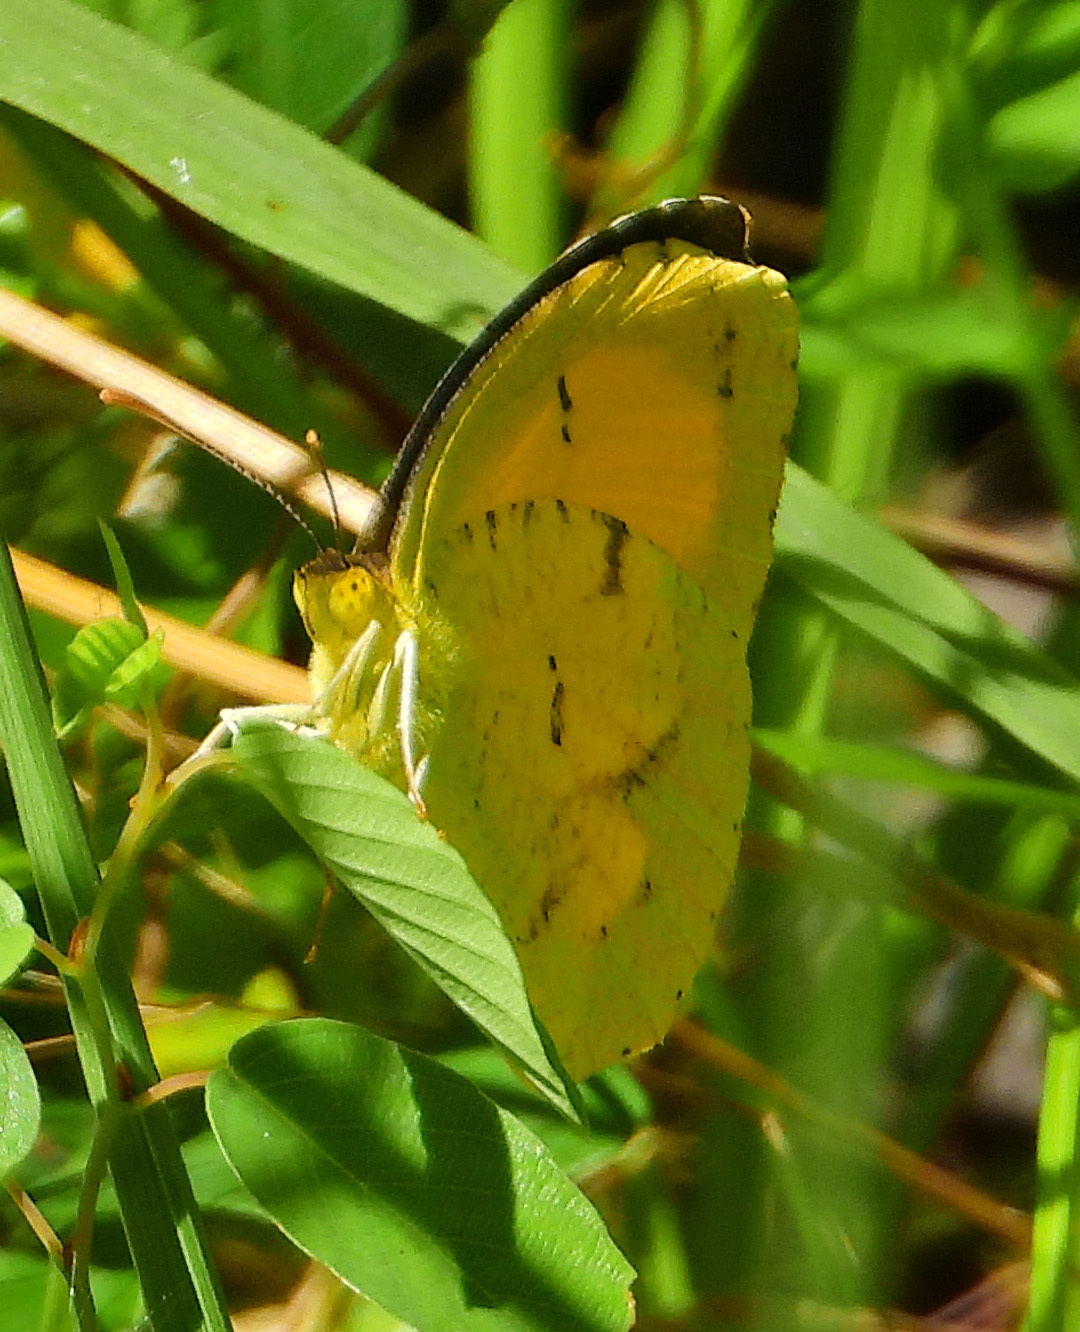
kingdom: Animalia
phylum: Arthropoda
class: Insecta
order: Lepidoptera
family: Pieridae
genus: Abaeis
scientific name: Abaeis nicippe
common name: Sleepy orange
